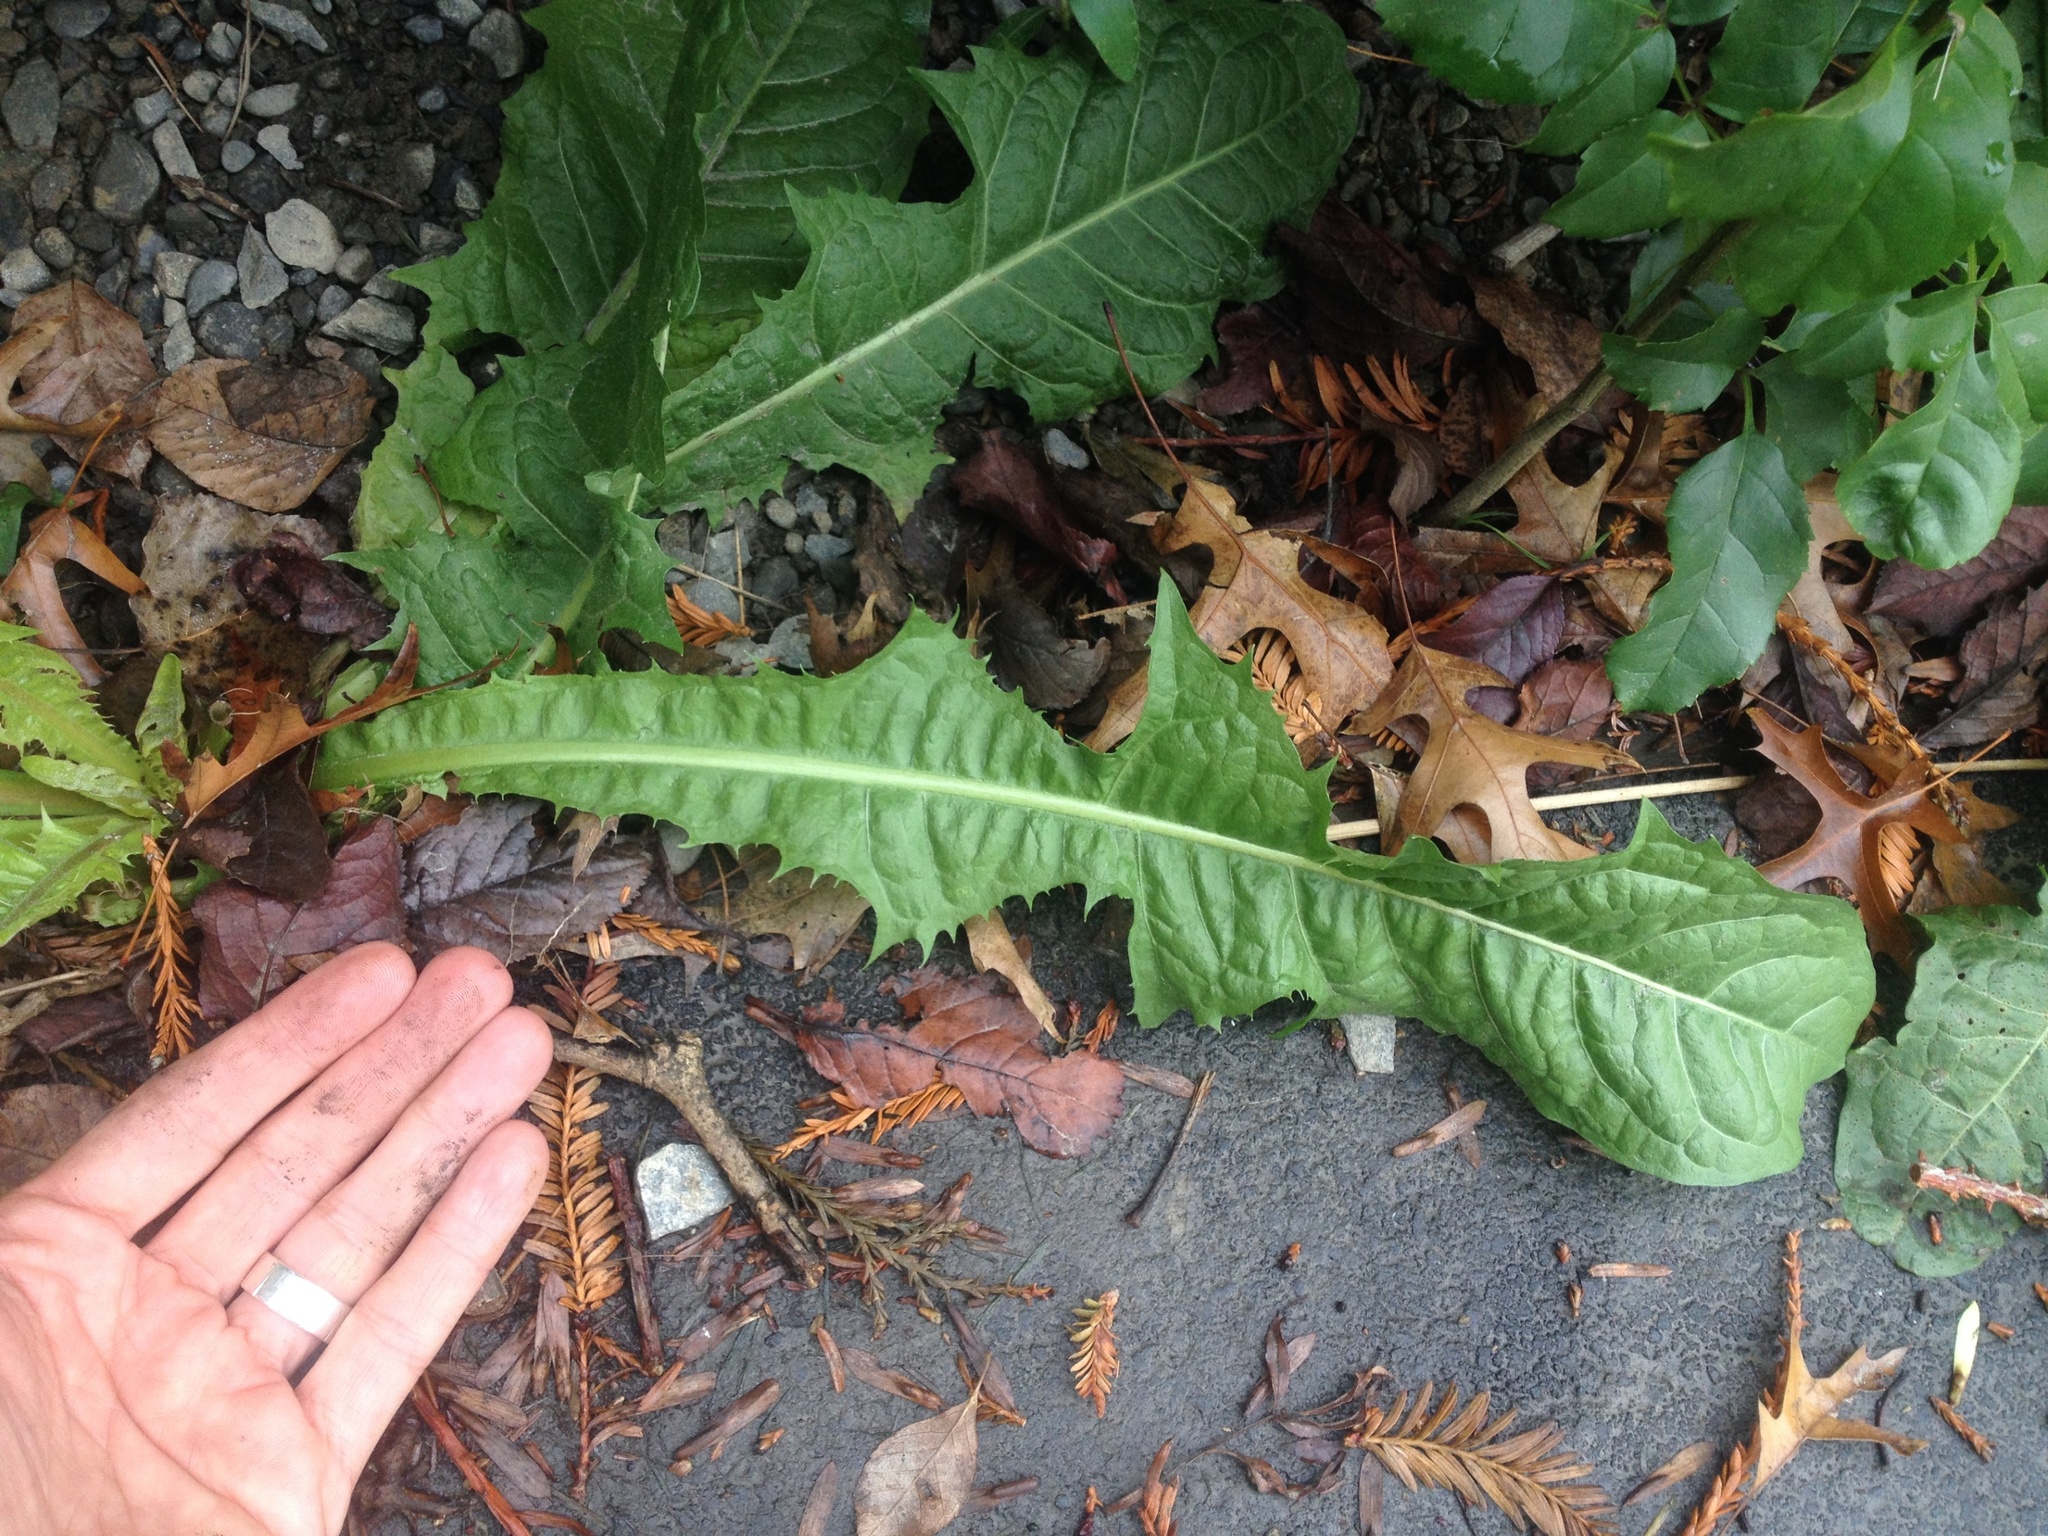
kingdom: Plantae
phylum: Tracheophyta
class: Magnoliopsida
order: Asterales
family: Asteraceae
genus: Taraxacum
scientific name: Taraxacum officinale
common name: Common dandelion
